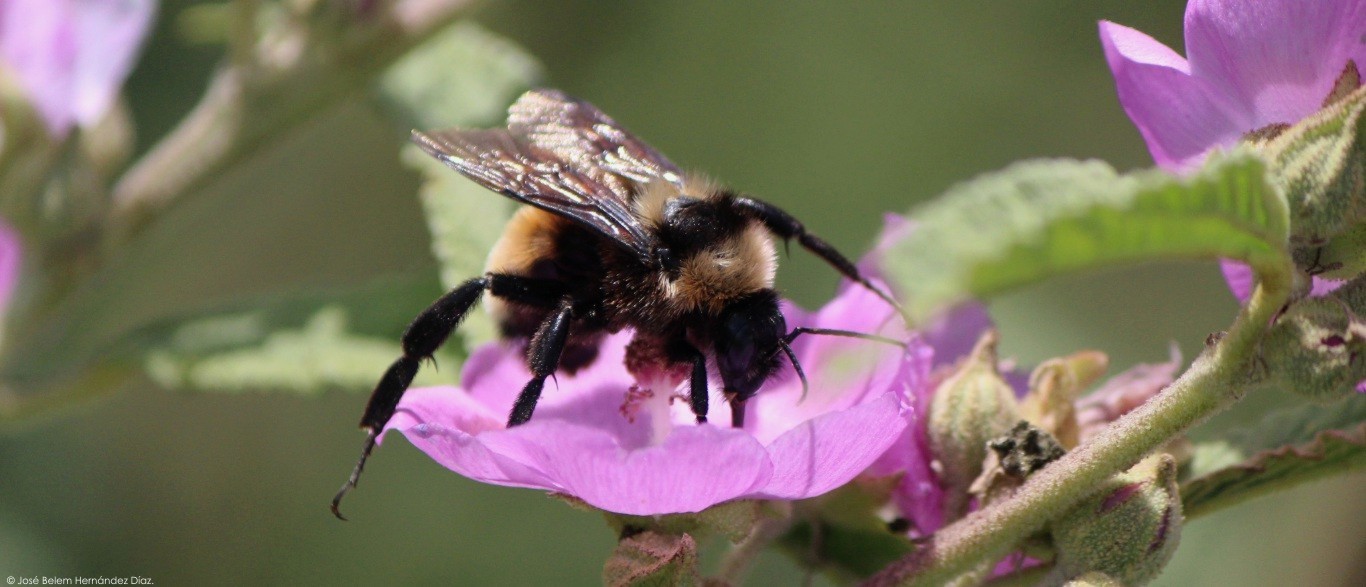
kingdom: Animalia
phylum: Arthropoda
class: Insecta
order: Hymenoptera
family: Apidae
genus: Bombus
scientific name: Bombus sonorus
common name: Sonoran bumble bee
